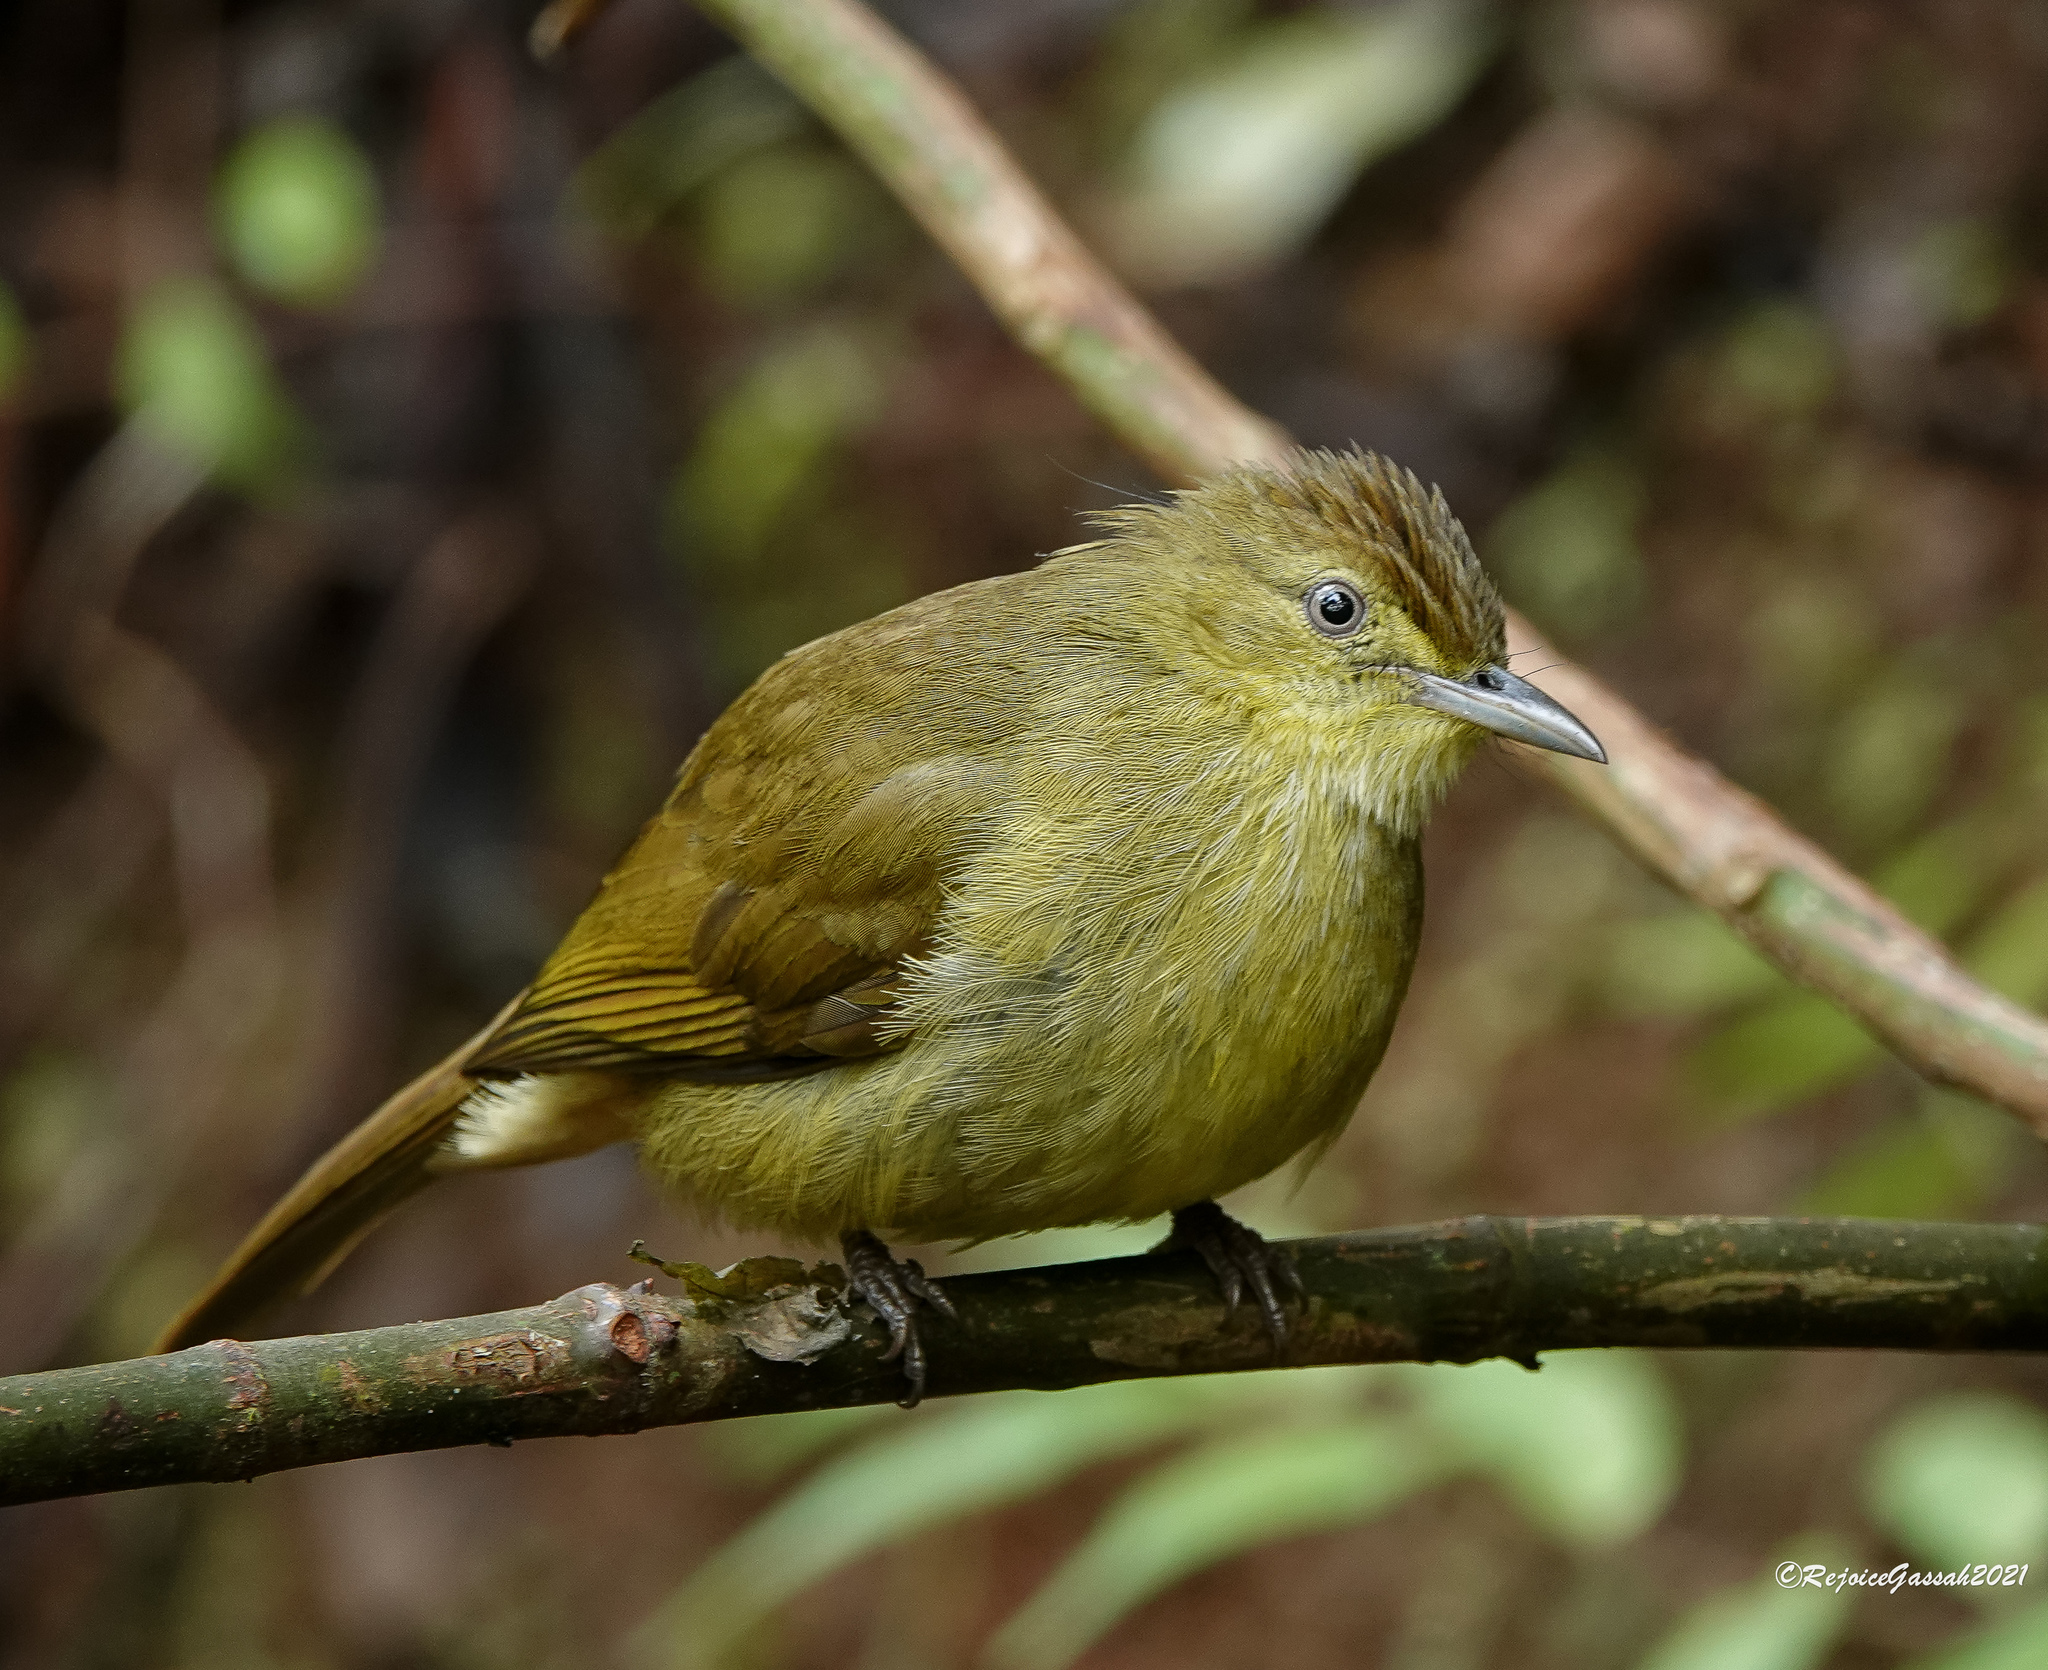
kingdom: Animalia
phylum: Chordata
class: Aves
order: Passeriformes
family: Pycnonotidae
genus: Iole
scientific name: Iole virescens
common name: Olive bulbul
